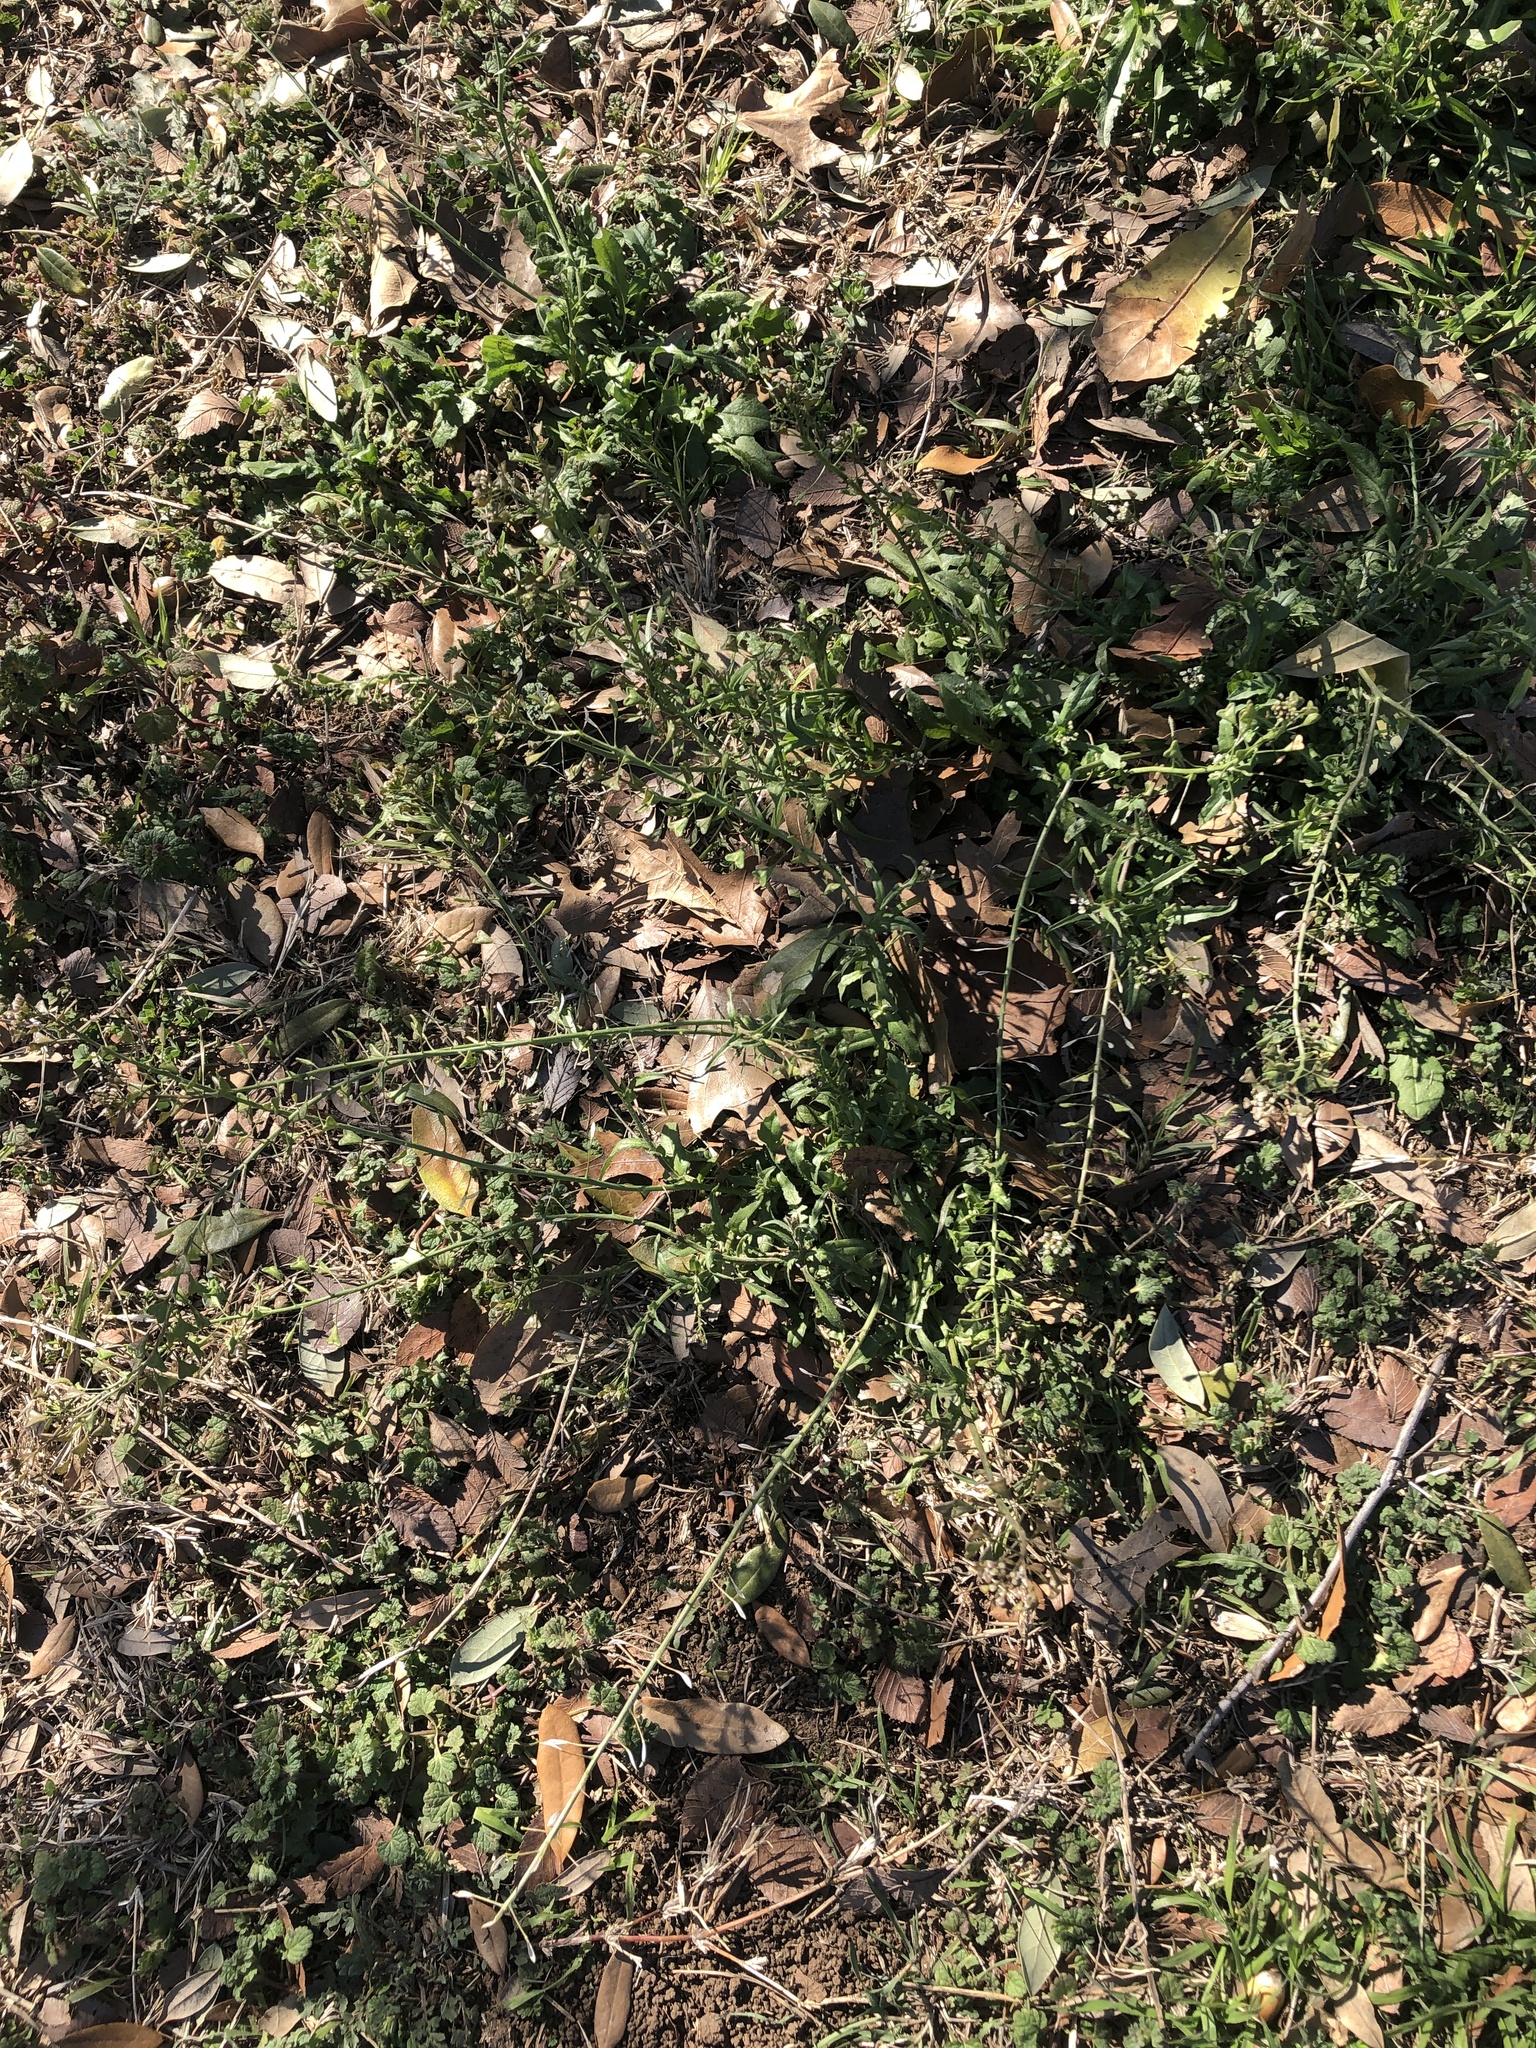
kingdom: Plantae
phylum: Tracheophyta
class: Magnoliopsida
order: Brassicales
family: Brassicaceae
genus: Capsella
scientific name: Capsella bursa-pastoris
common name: Shepherd's purse
